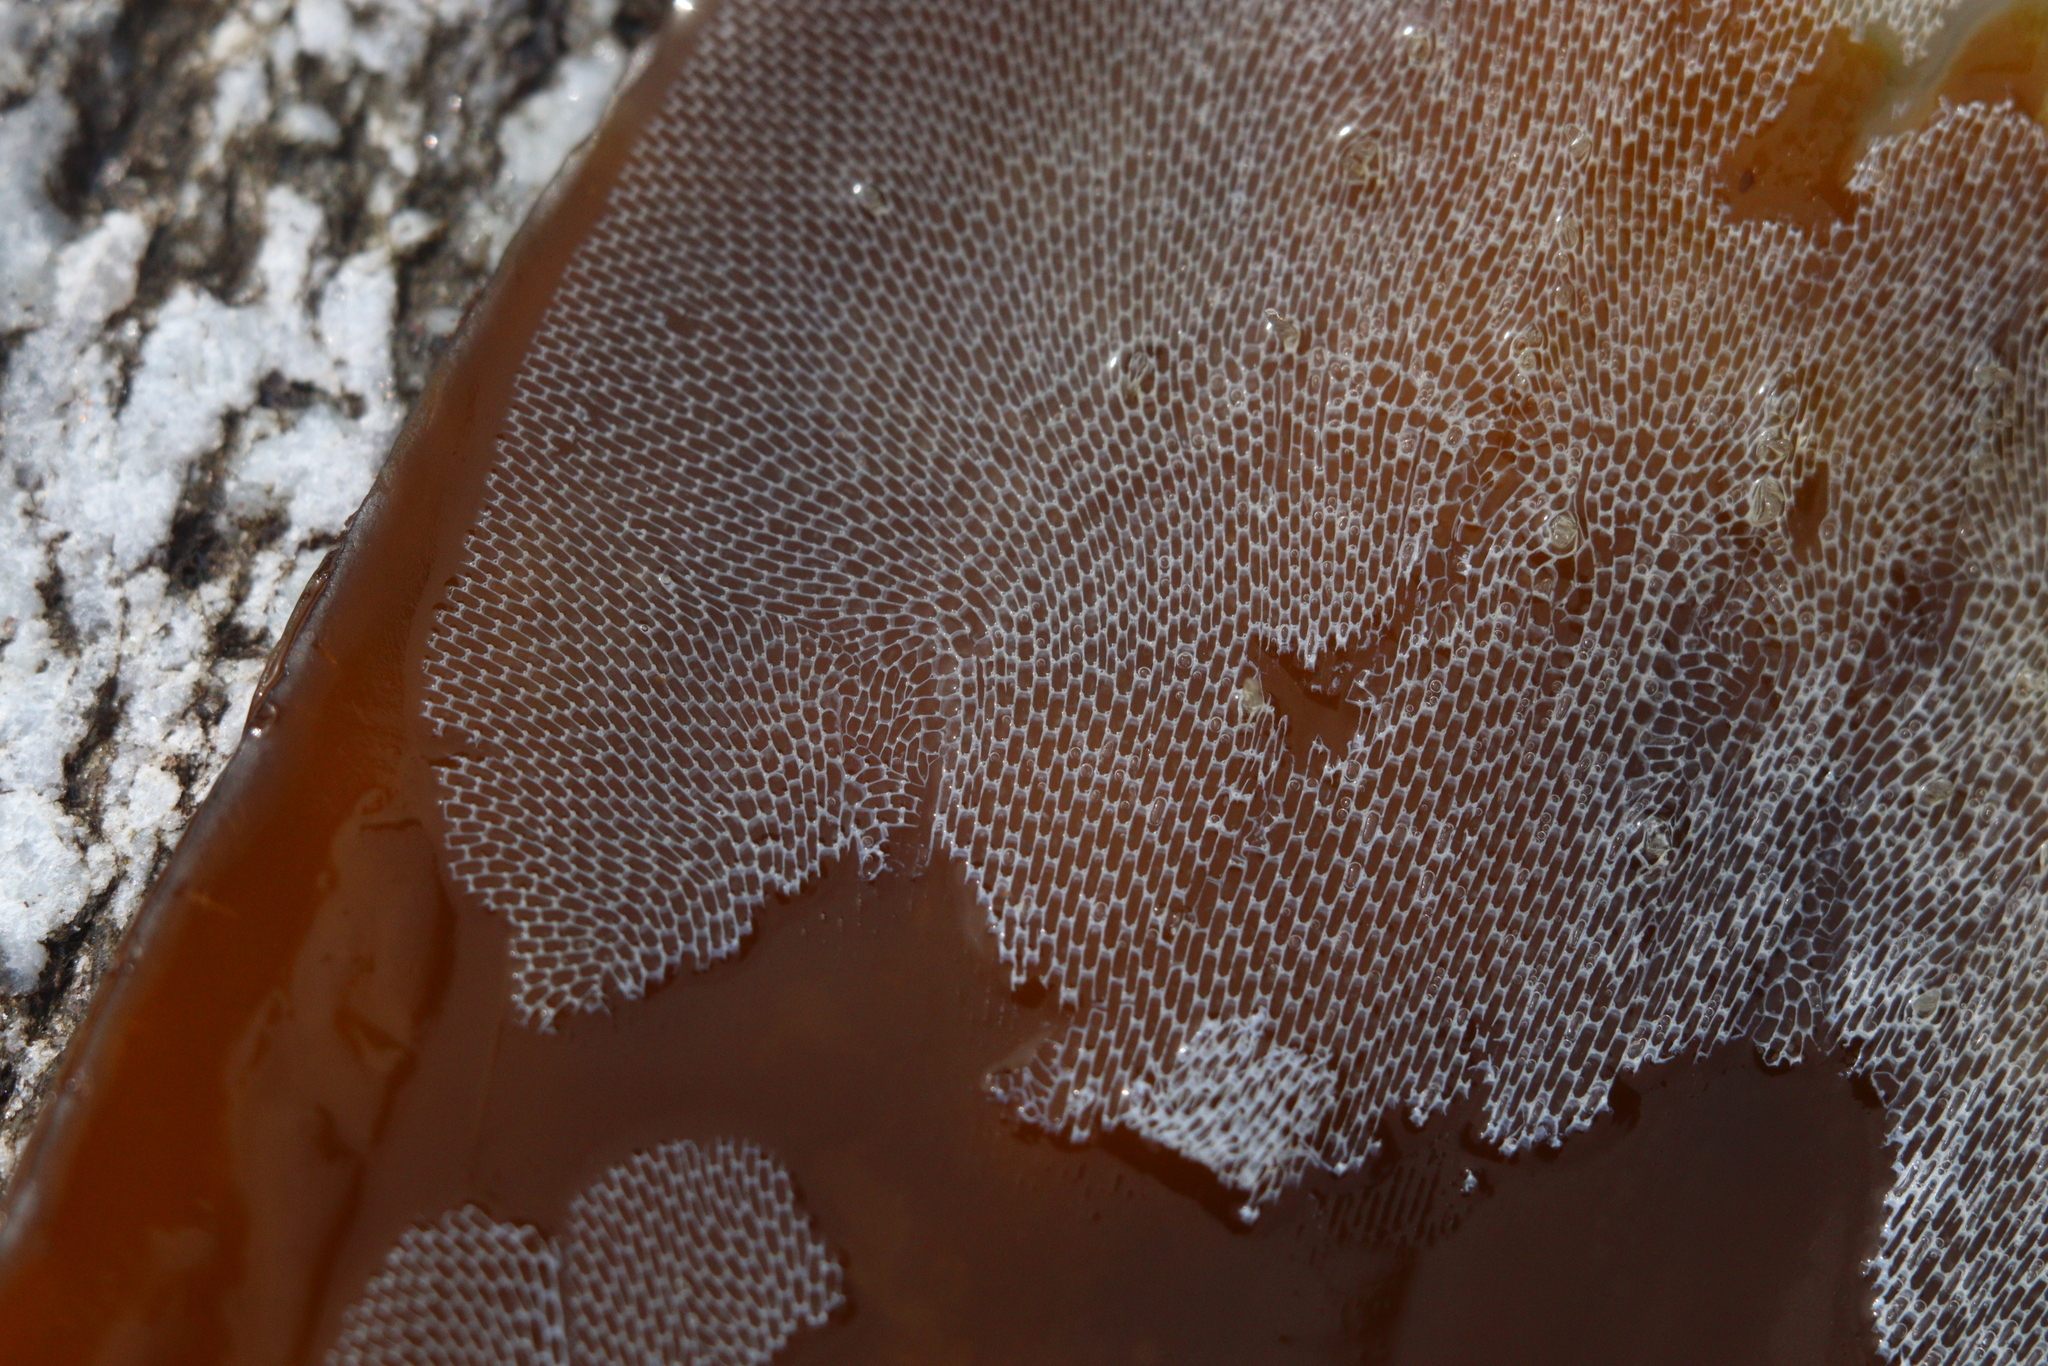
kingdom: Animalia
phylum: Bryozoa
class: Gymnolaemata
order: Cheilostomatida
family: Membraniporidae
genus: Membranipora
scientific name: Membranipora membranacea
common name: Sea mat
